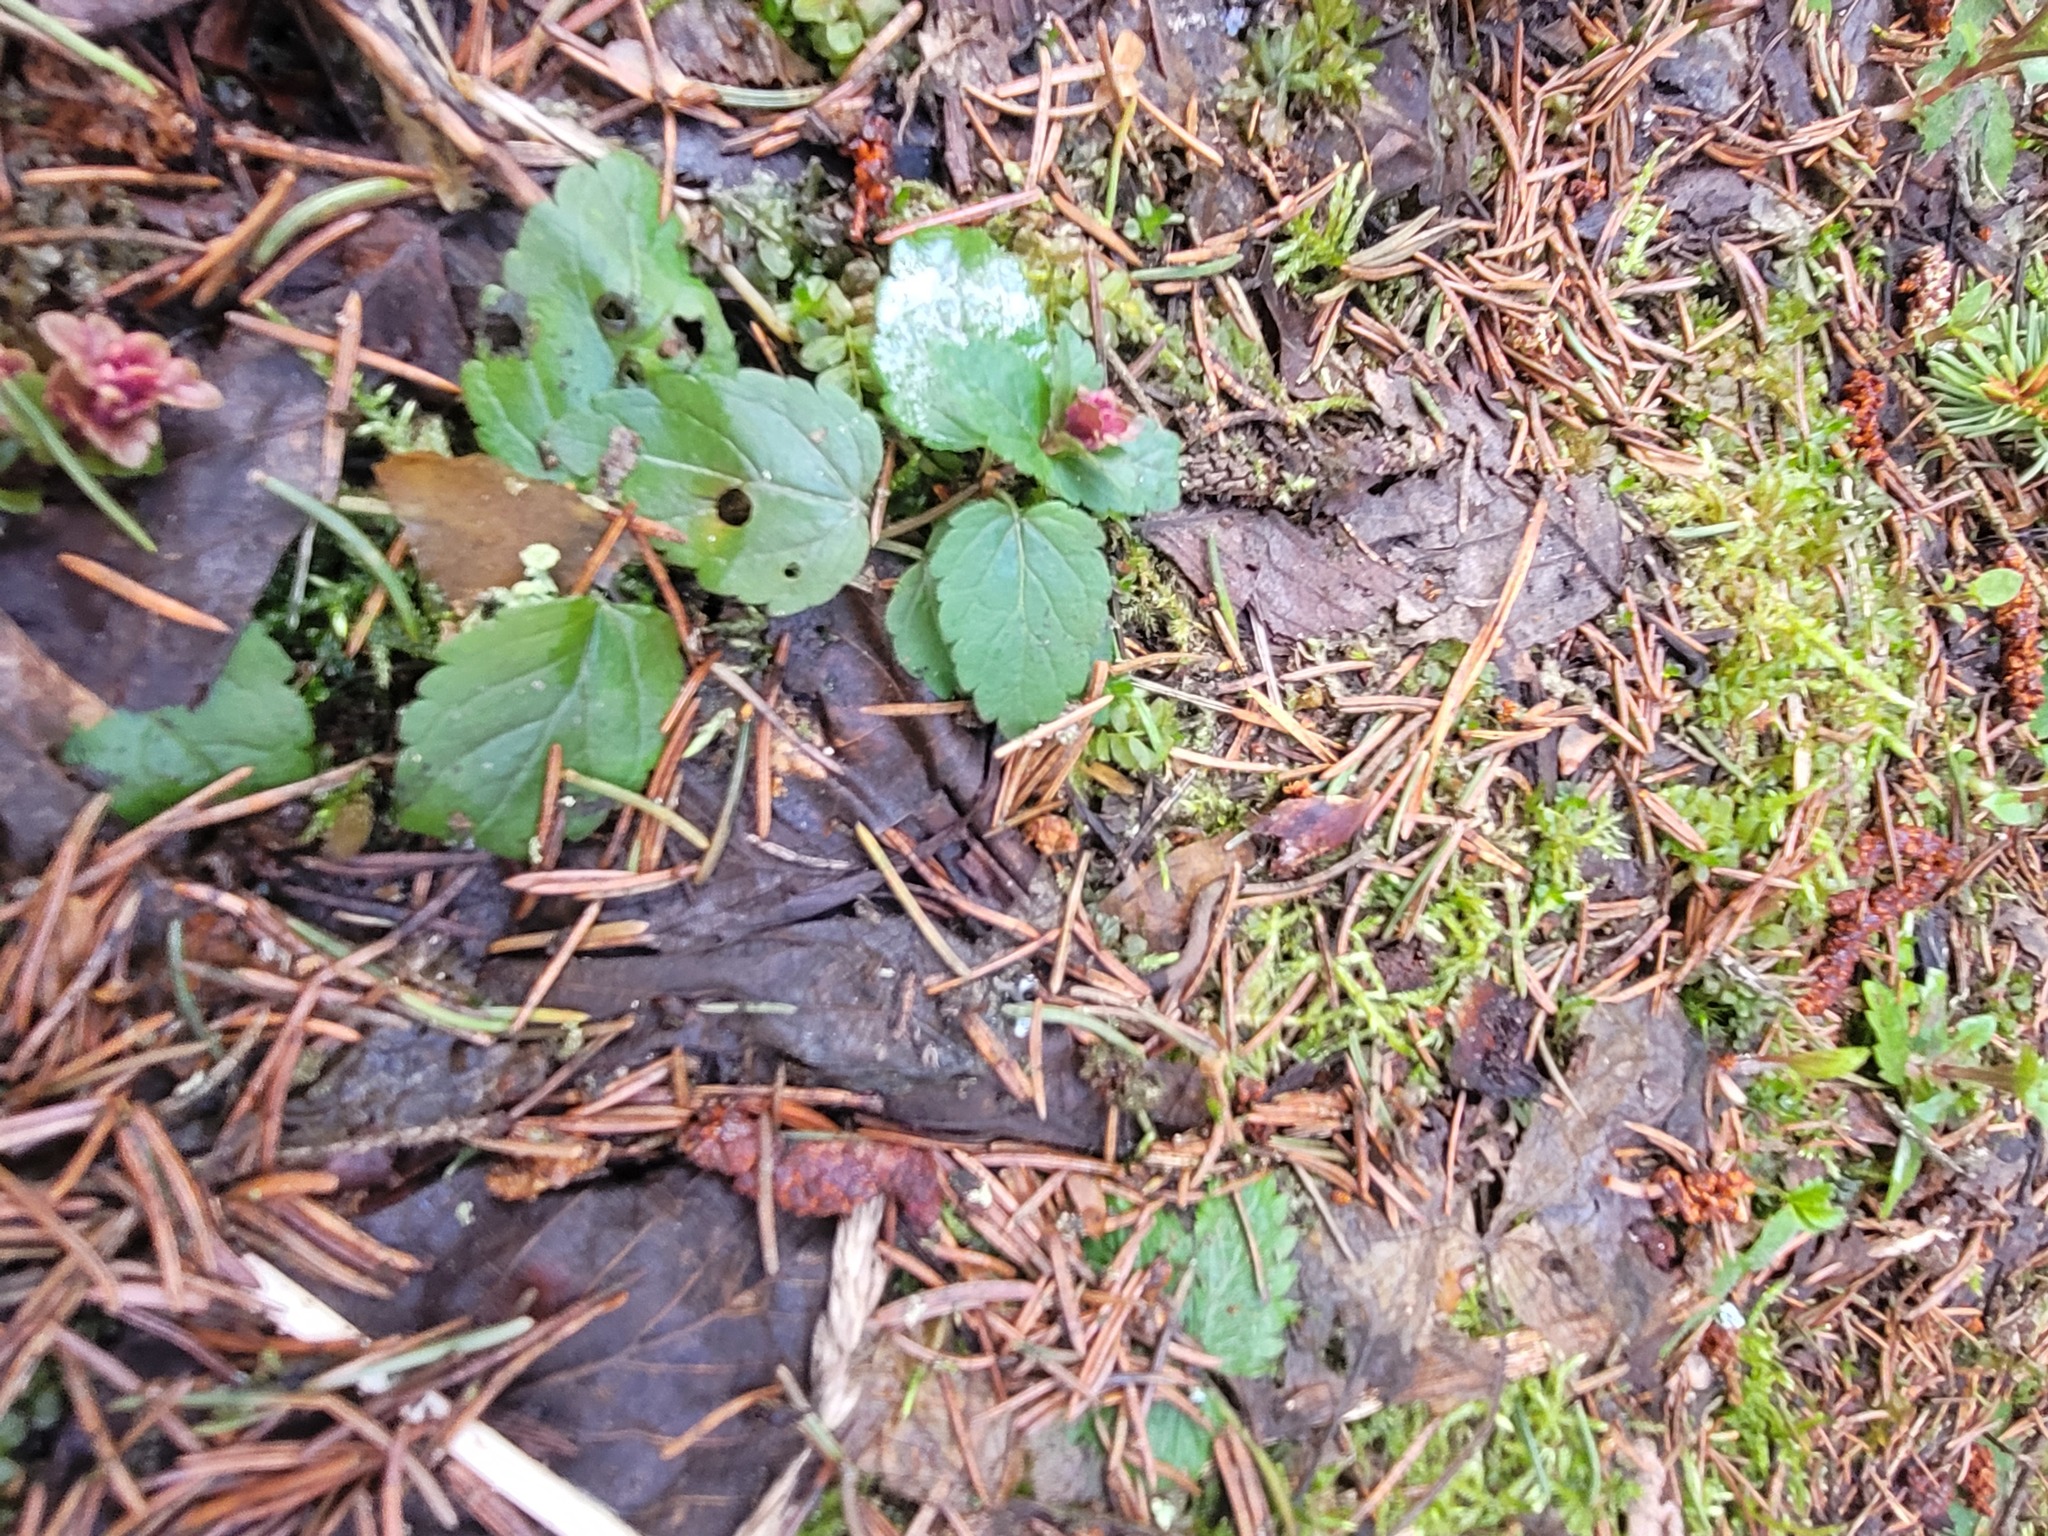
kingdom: Plantae
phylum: Tracheophyta
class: Magnoliopsida
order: Lamiales
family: Plantaginaceae
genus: Veronica
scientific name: Veronica chamaedrys
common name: Germander speedwell
